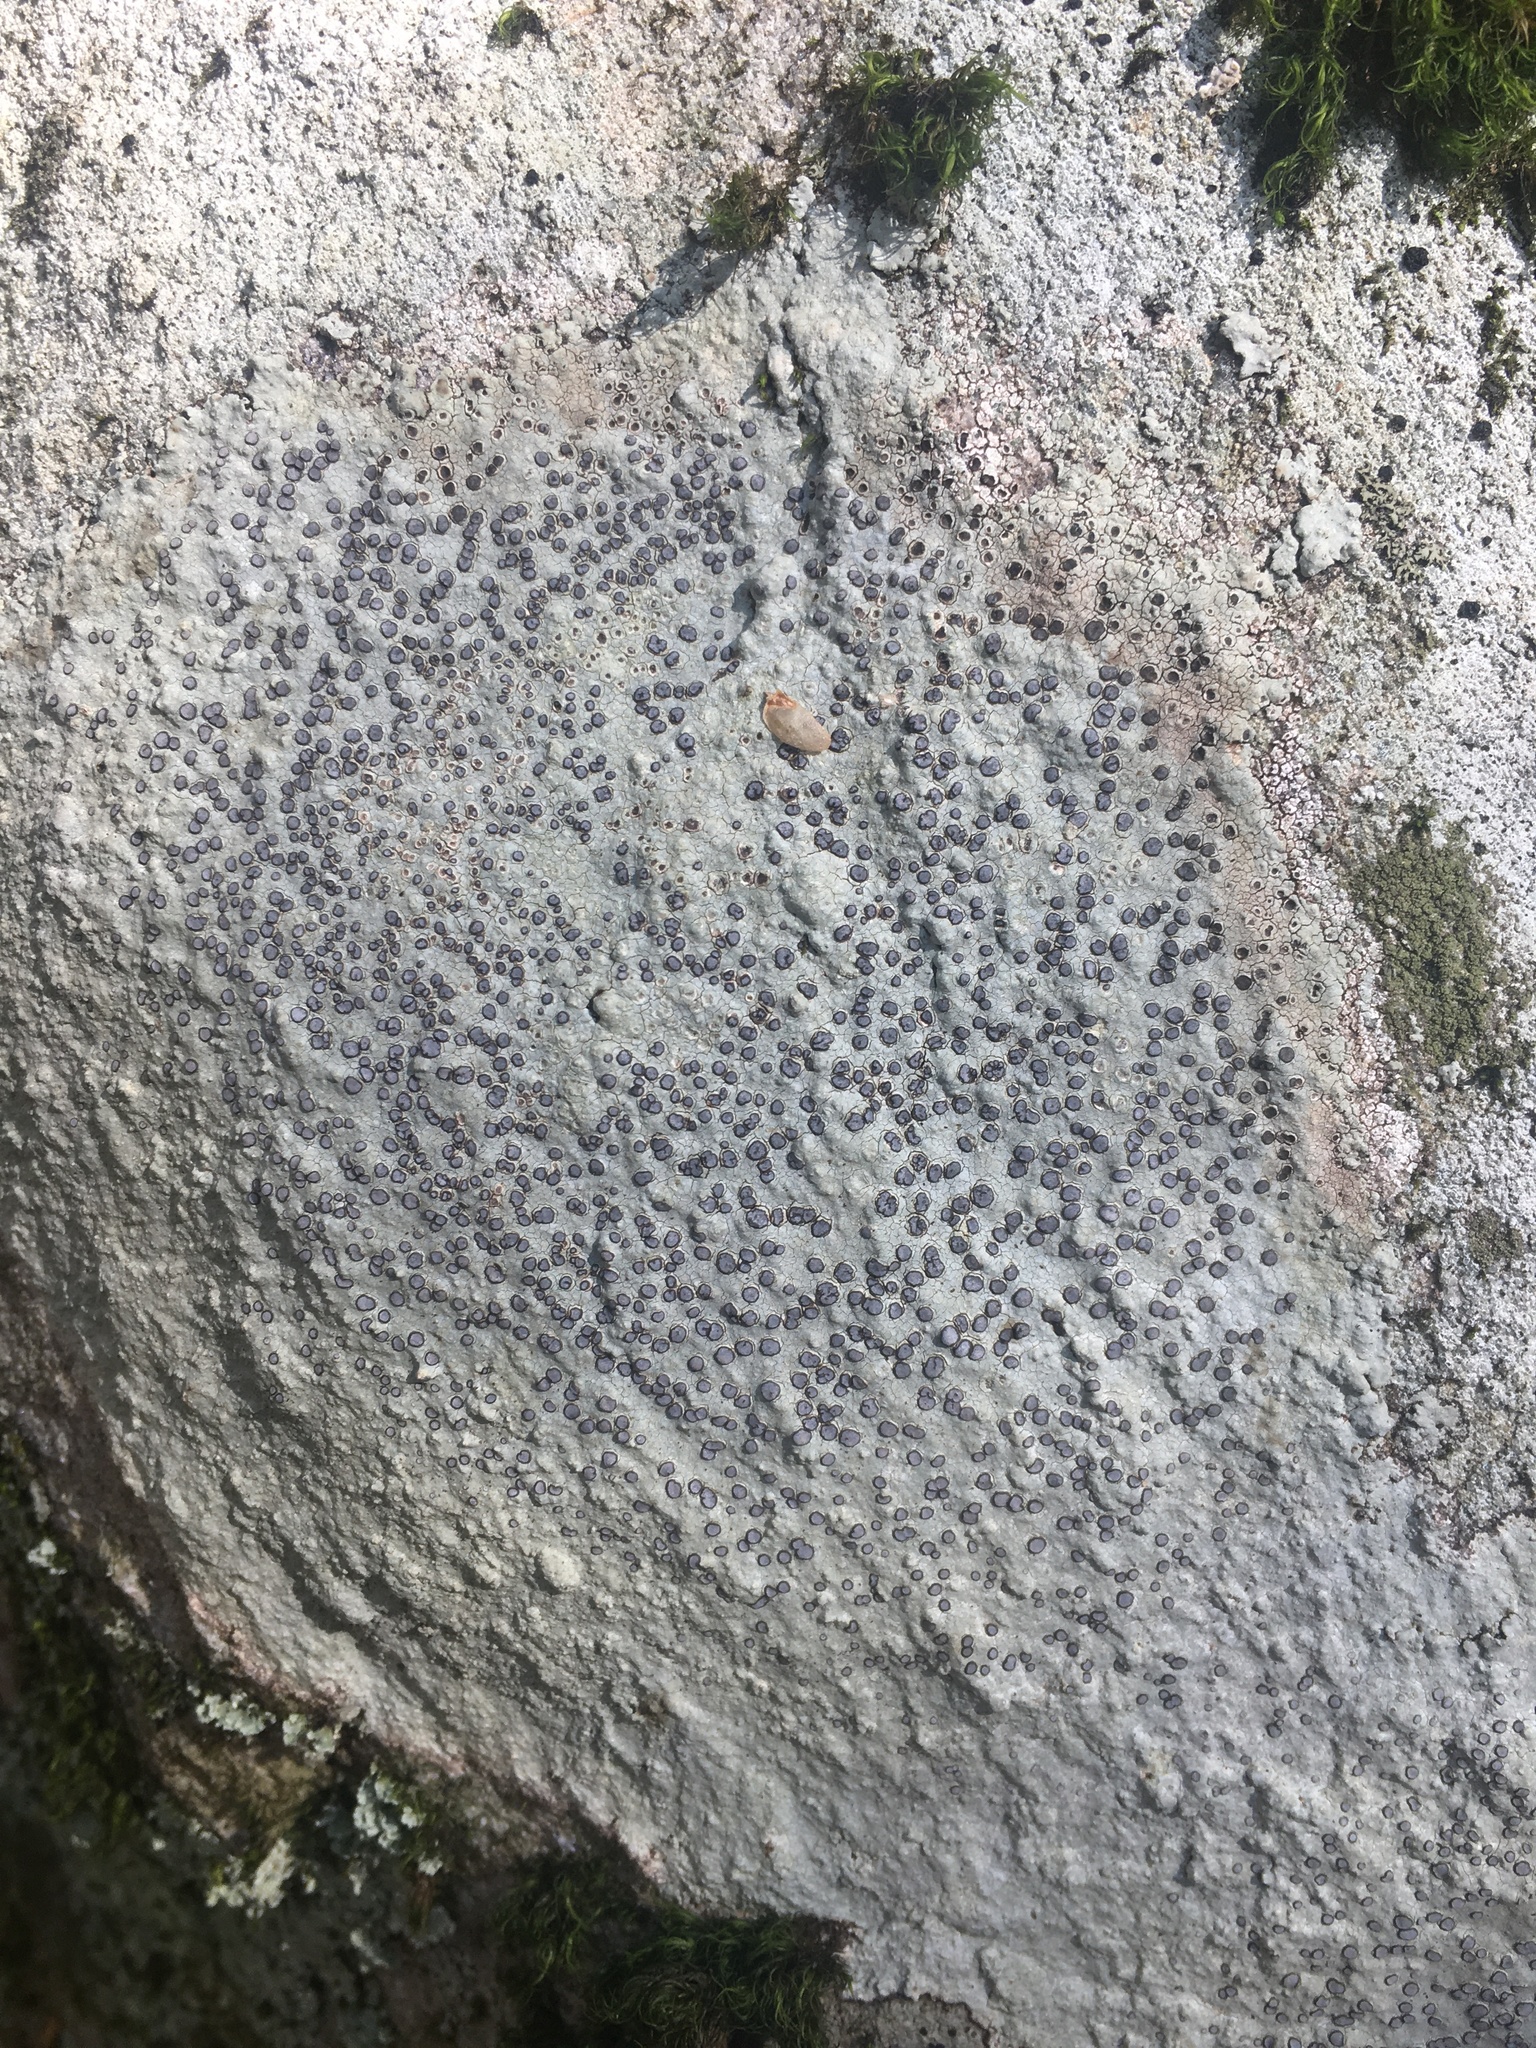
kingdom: Fungi
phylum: Ascomycota
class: Lecanoromycetes
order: Lecideales
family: Lecideaceae
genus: Porpidia
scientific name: Porpidia albocaerulescens
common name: Smokey-eyed boulder lichen
